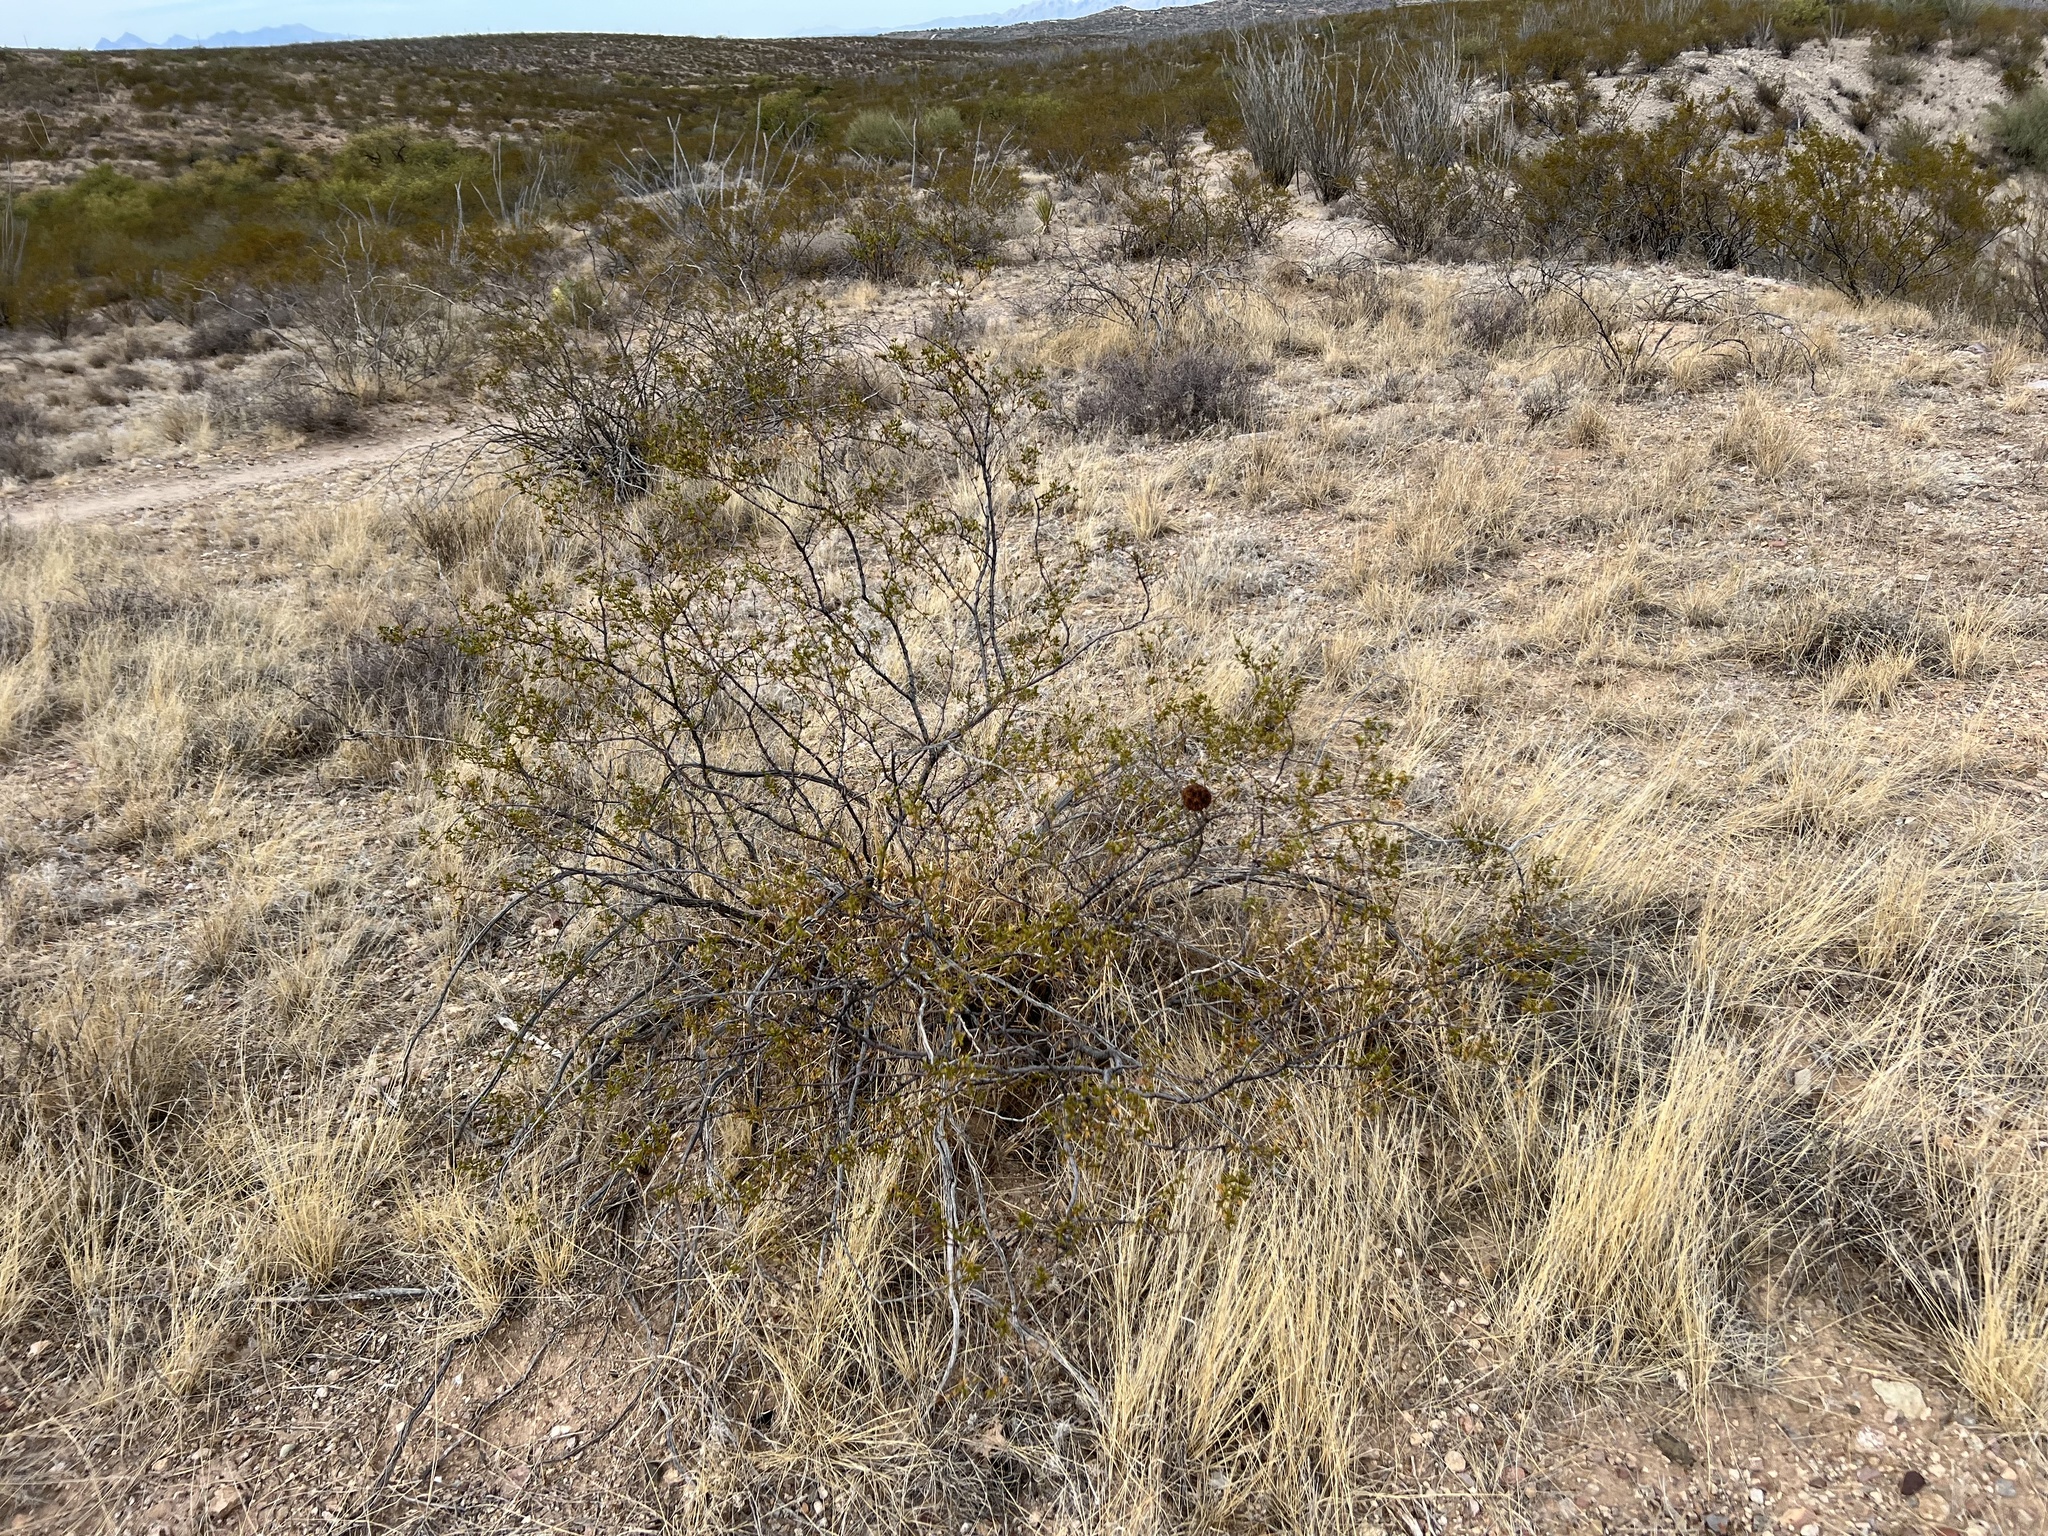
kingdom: Plantae
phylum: Tracheophyta
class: Magnoliopsida
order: Zygophyllales
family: Zygophyllaceae
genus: Larrea
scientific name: Larrea tridentata
